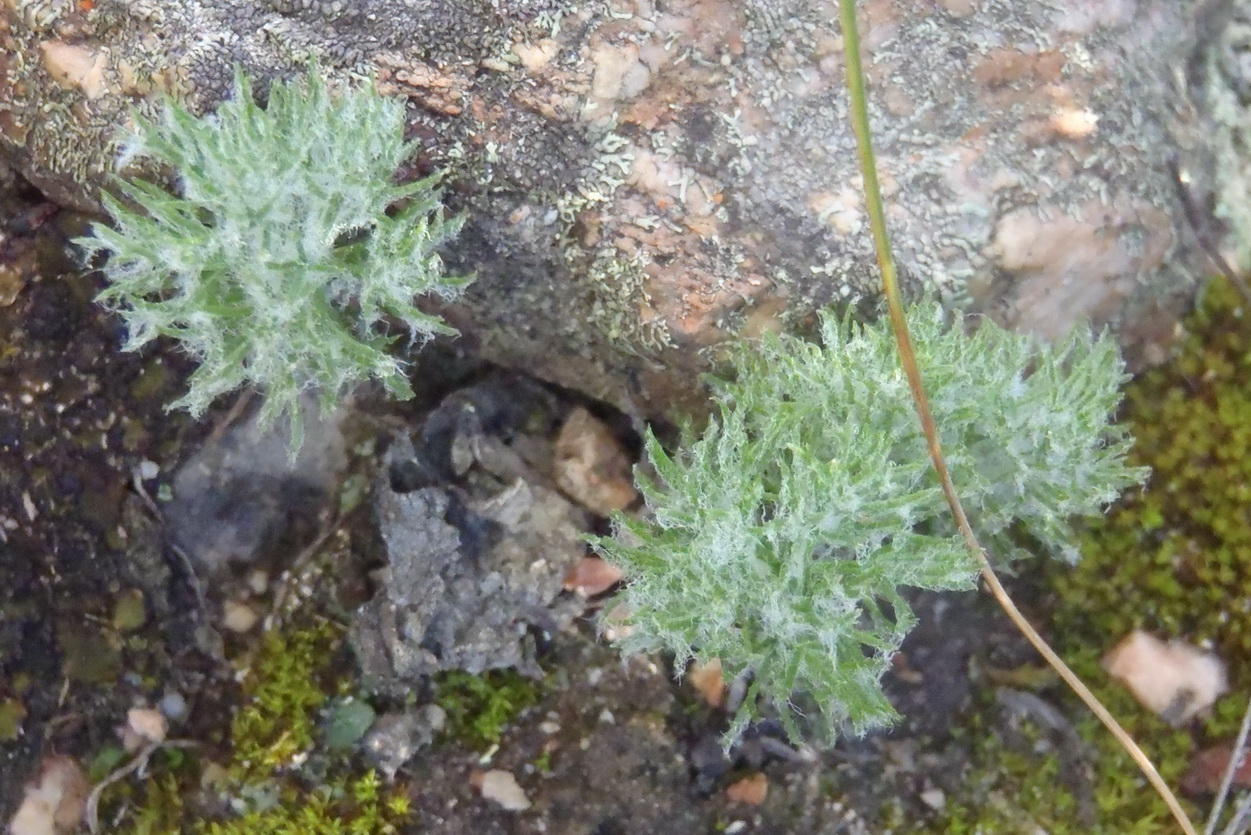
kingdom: Plantae
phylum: Tracheophyta
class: Liliopsida
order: Asparagales
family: Asparagaceae
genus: Eriospermum
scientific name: Eriospermum paradoxum
